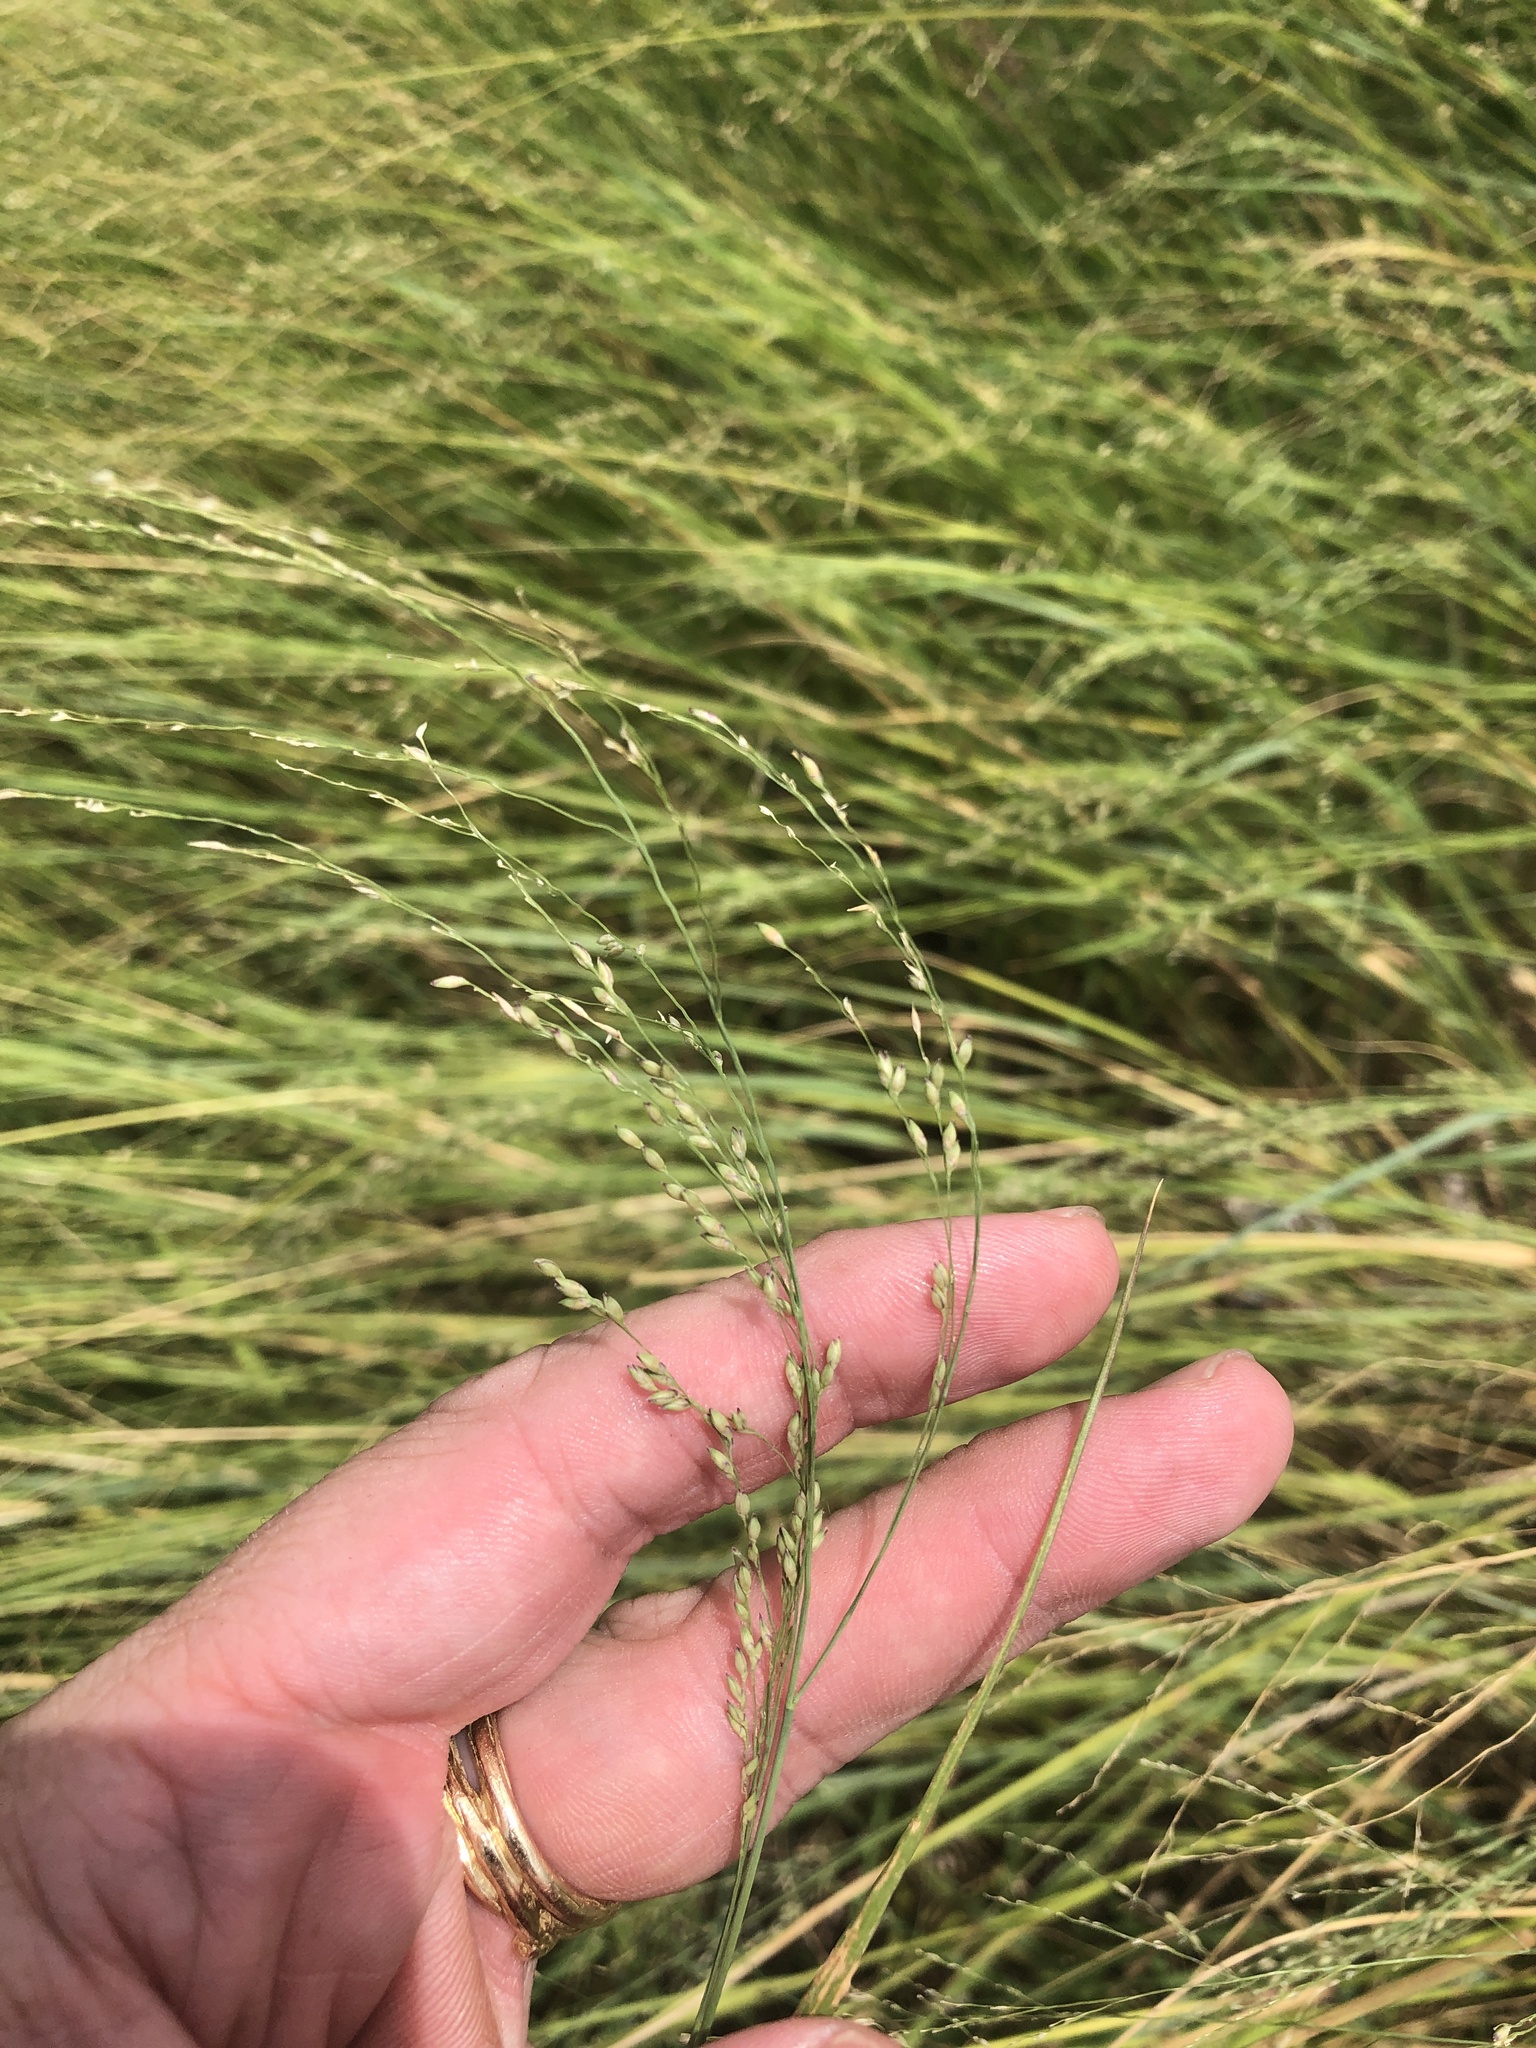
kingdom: Plantae
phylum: Tracheophyta
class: Liliopsida
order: Poales
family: Poaceae
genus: Panicum
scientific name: Panicum coloratum
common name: Kleingrass
